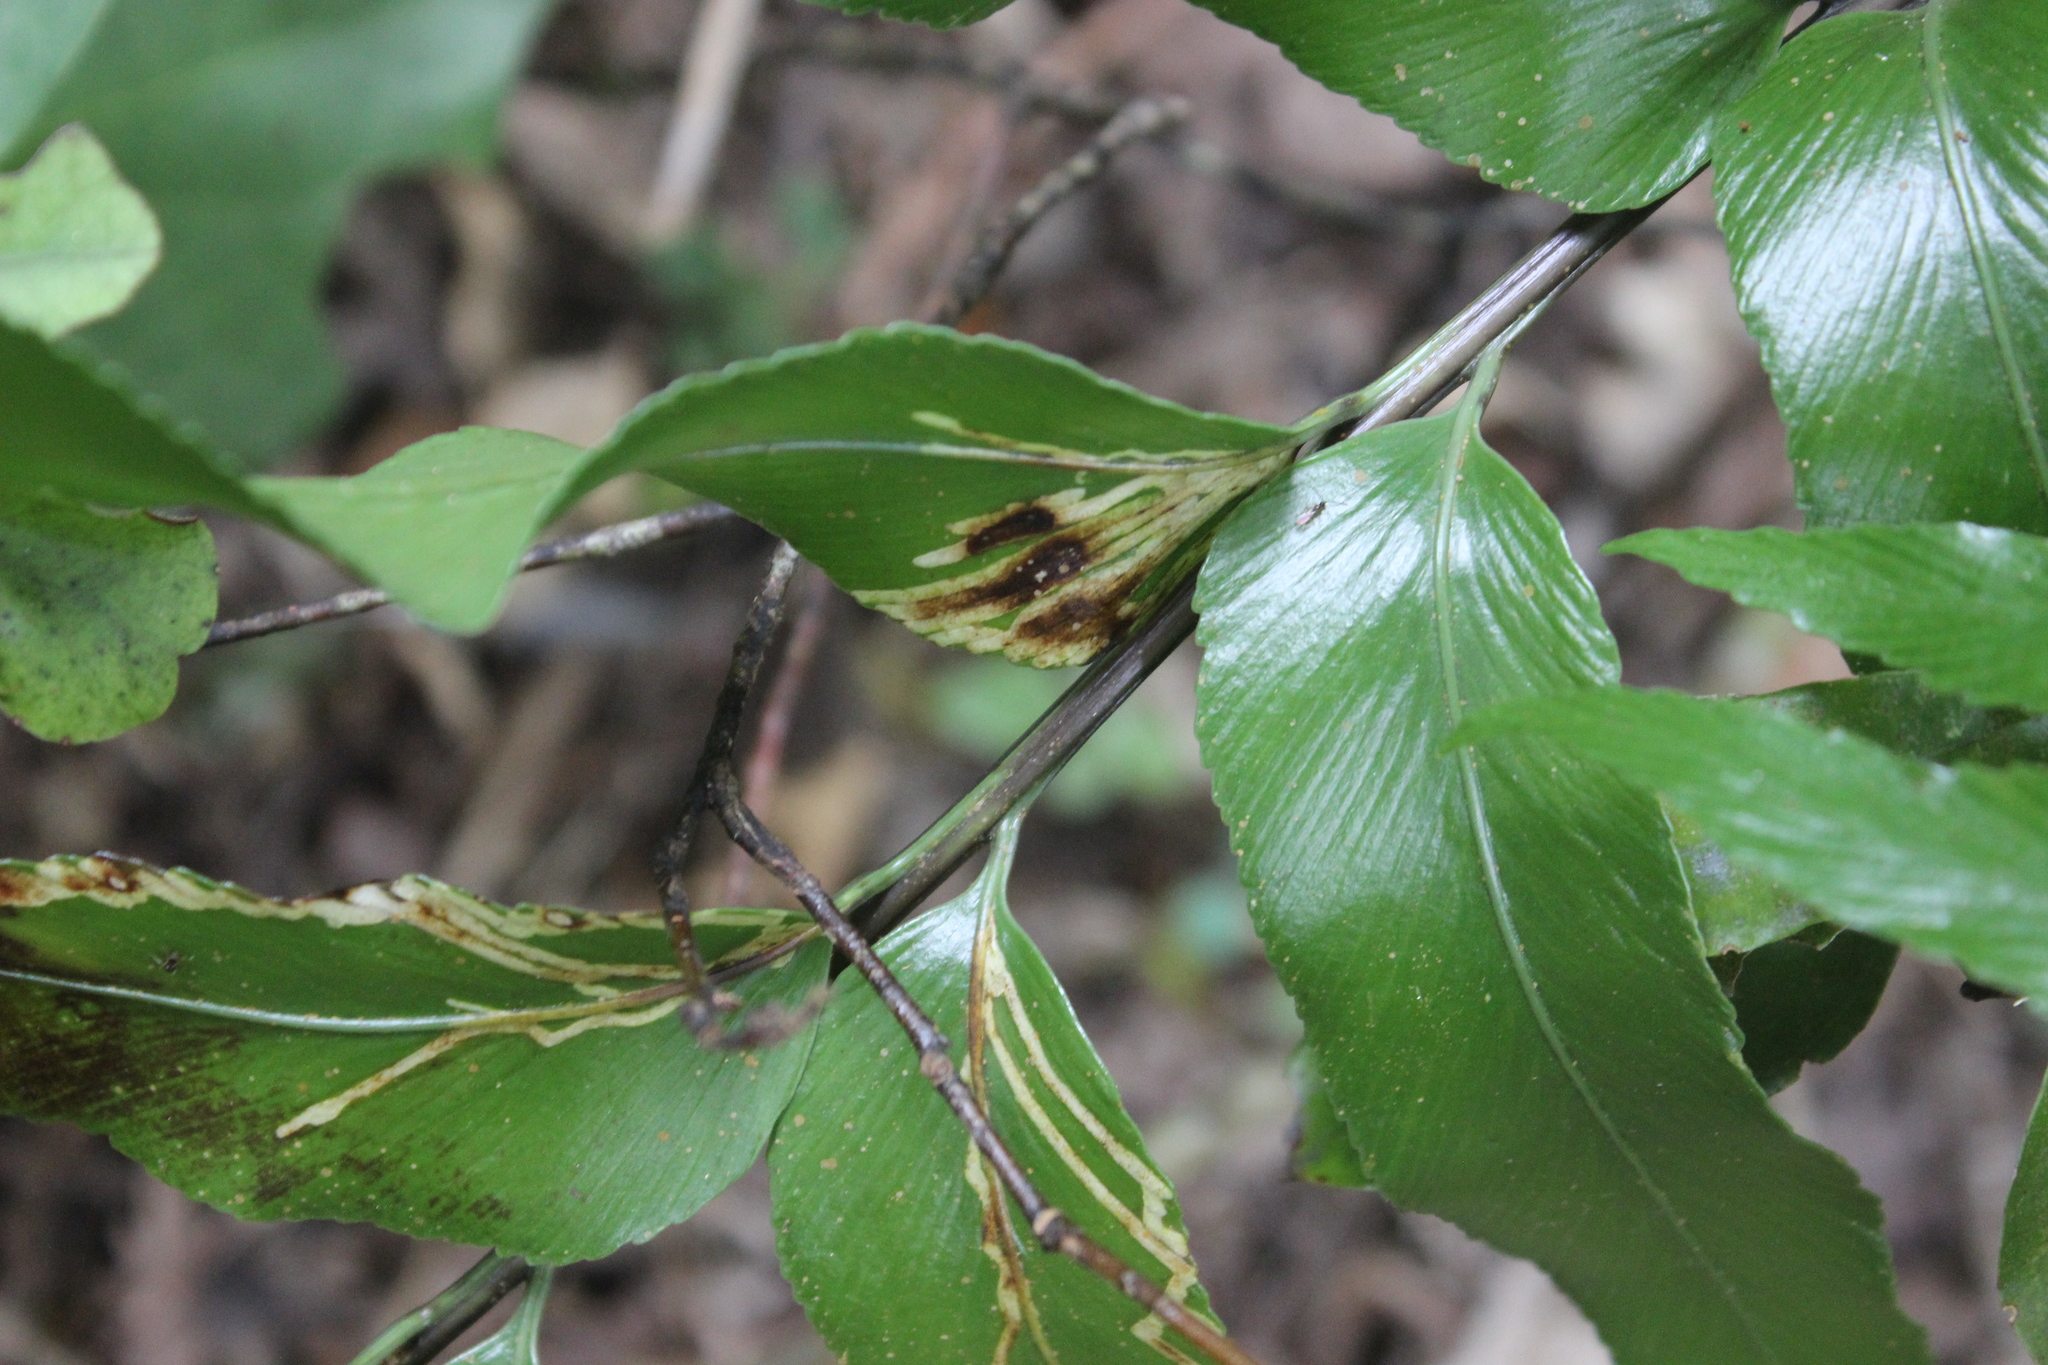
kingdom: Plantae
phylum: Tracheophyta
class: Polypodiopsida
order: Polypodiales
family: Aspleniaceae
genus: Asplenium
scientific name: Asplenium oblongifolium
